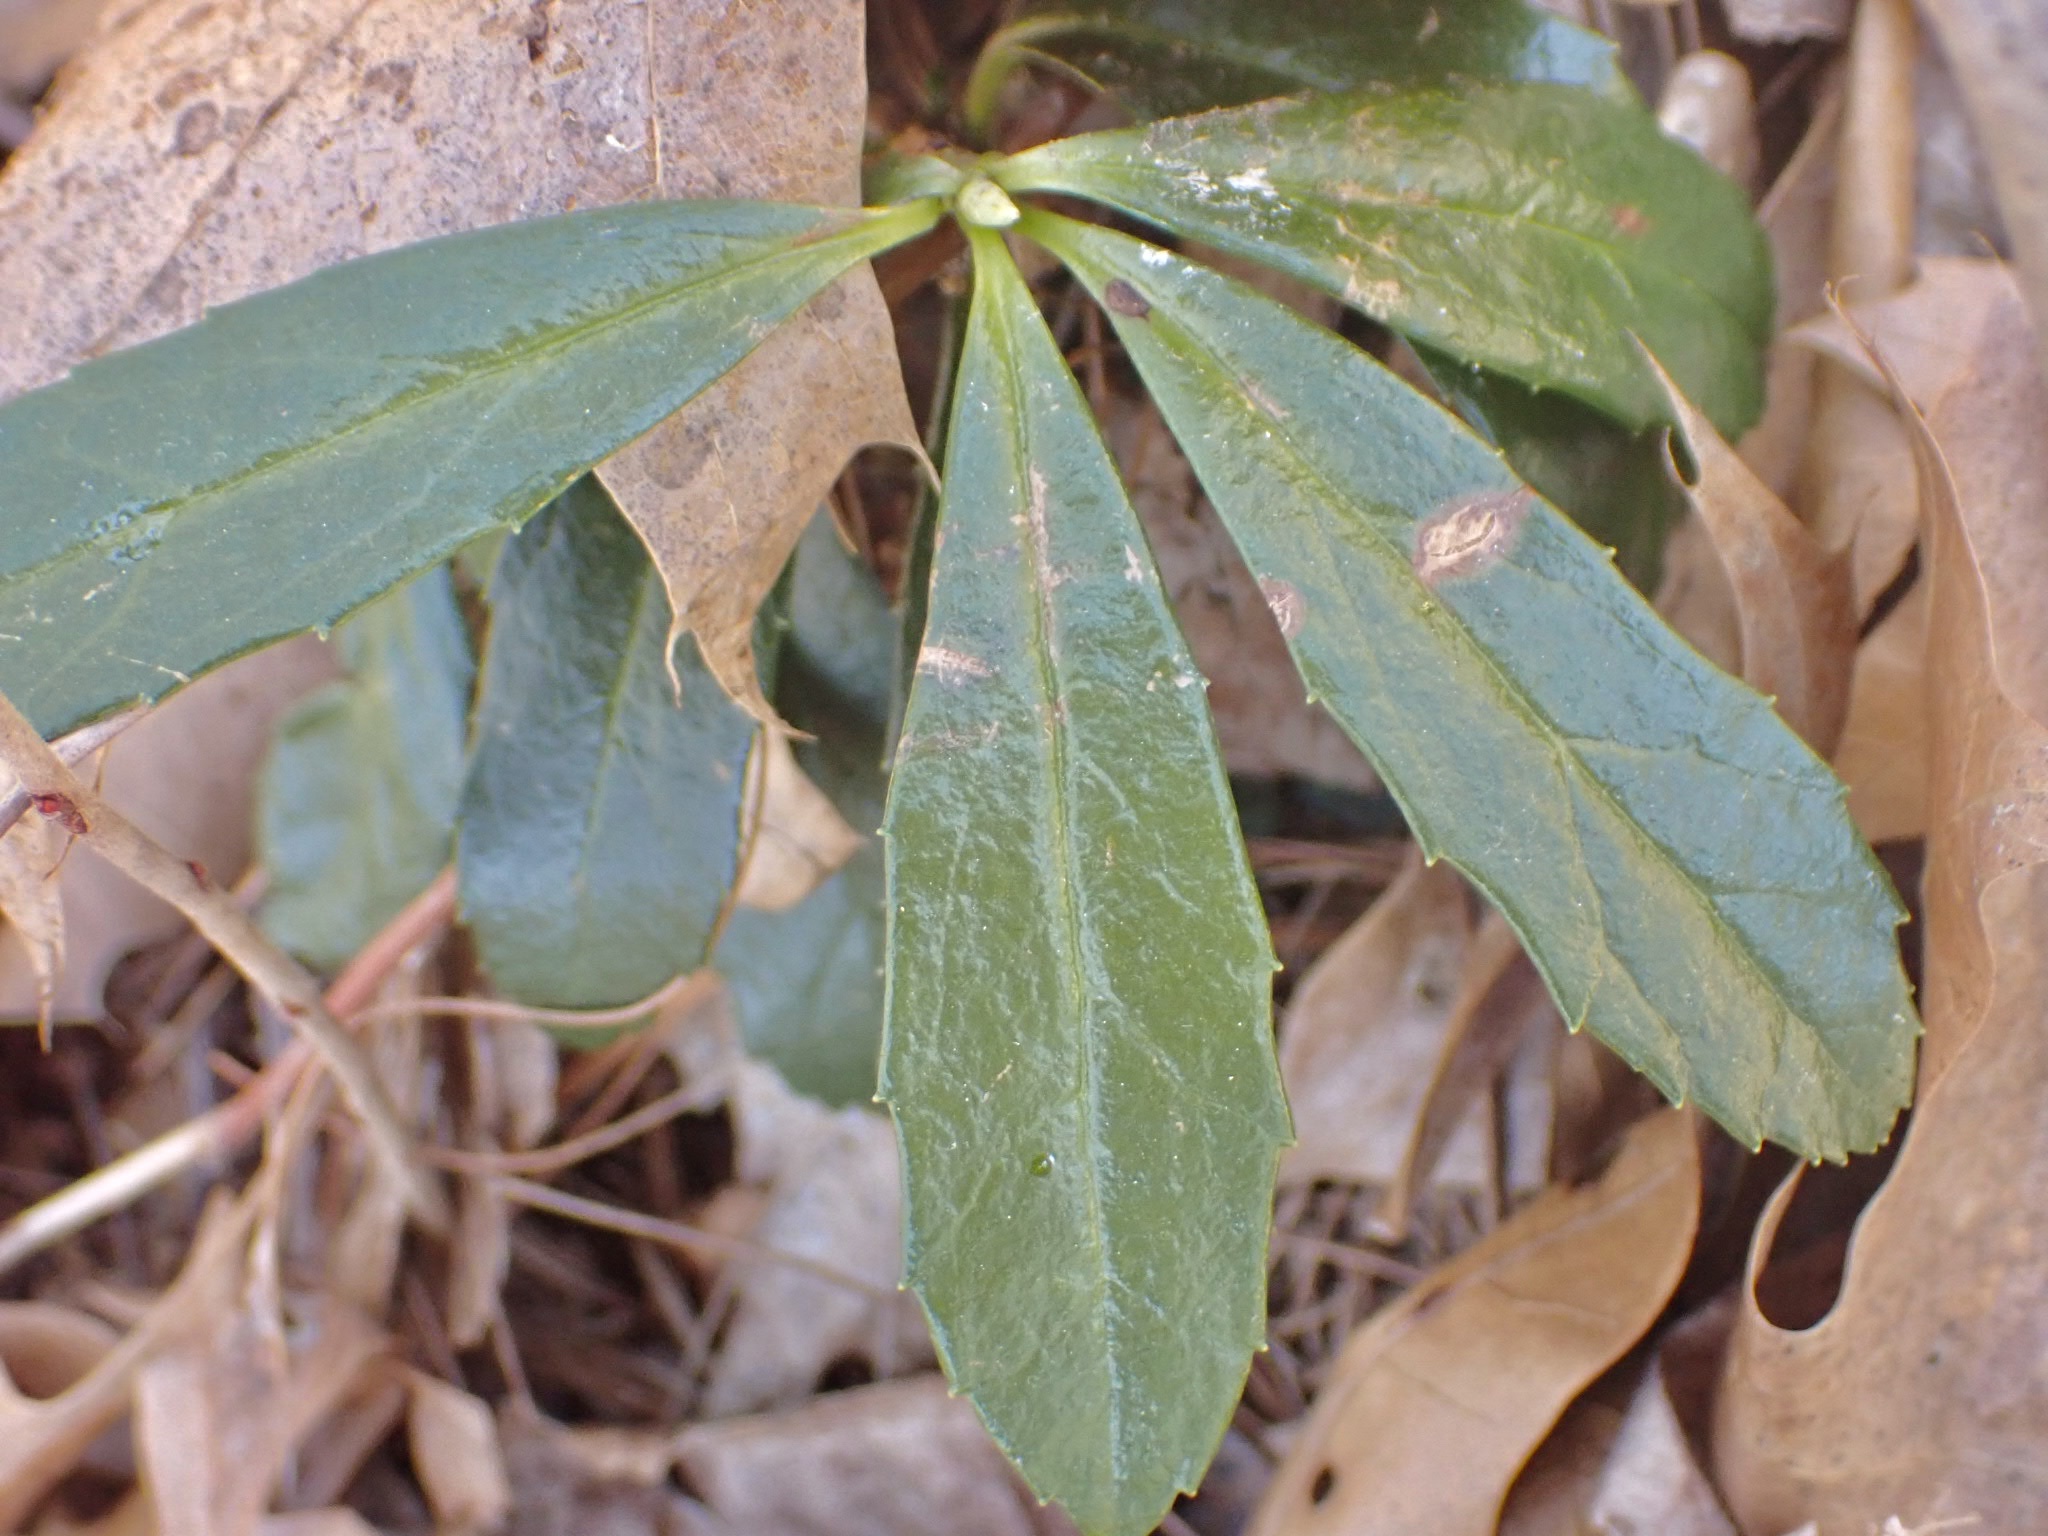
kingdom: Plantae
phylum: Tracheophyta
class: Magnoliopsida
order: Ericales
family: Ericaceae
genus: Chimaphila
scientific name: Chimaphila umbellata
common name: Pipsissewa
